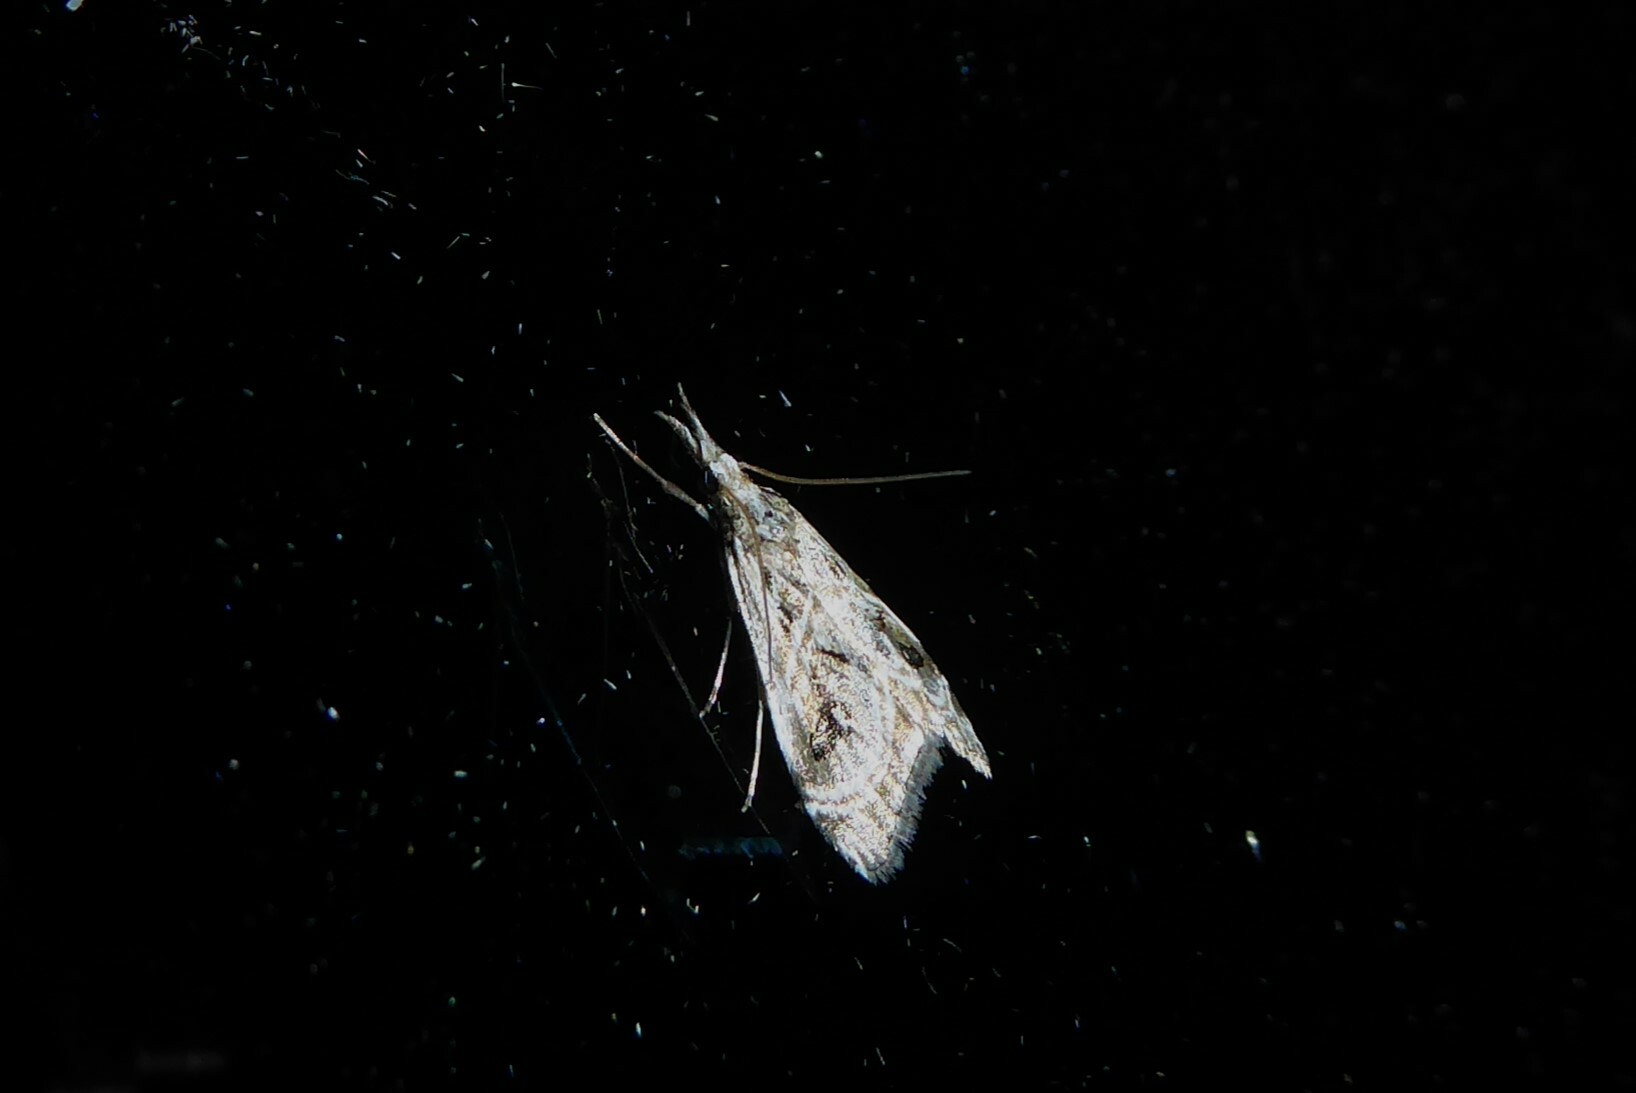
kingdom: Animalia
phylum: Arthropoda
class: Insecta
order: Lepidoptera
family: Crambidae
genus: Gadira
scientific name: Gadira acerella
